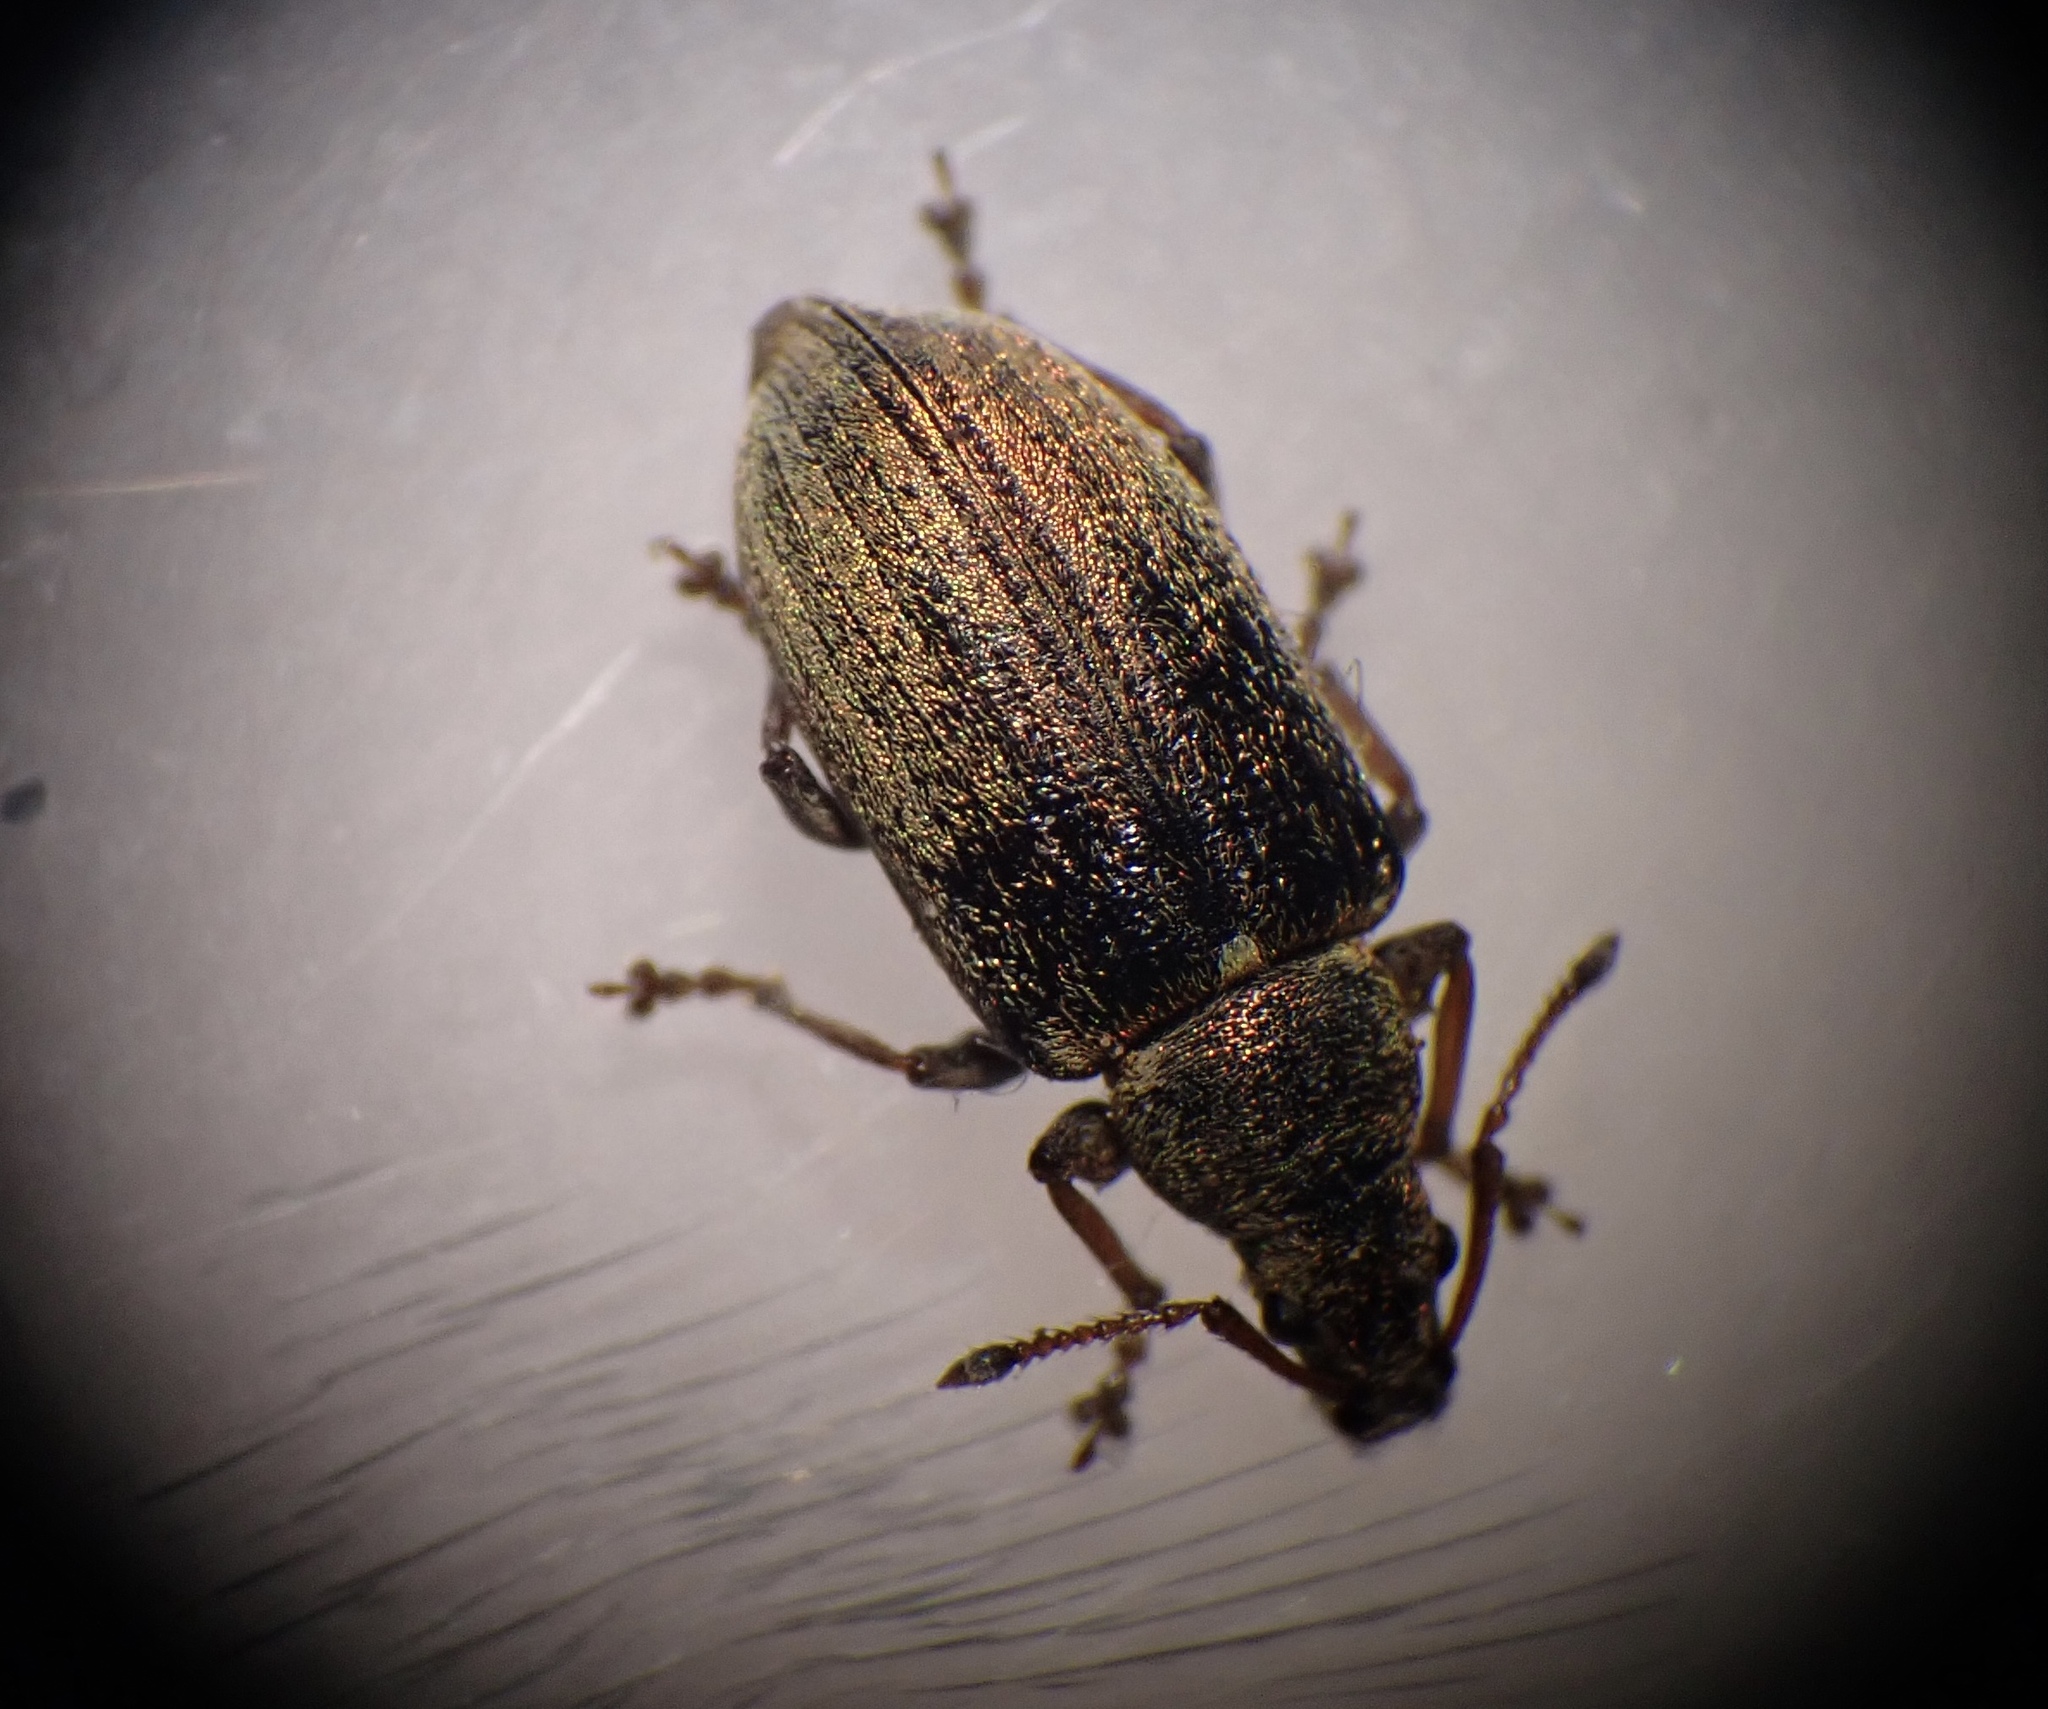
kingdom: Animalia
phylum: Arthropoda
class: Insecta
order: Coleoptera
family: Curculionidae
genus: Phyllobius
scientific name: Phyllobius pyri
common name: Common leaf weevil
